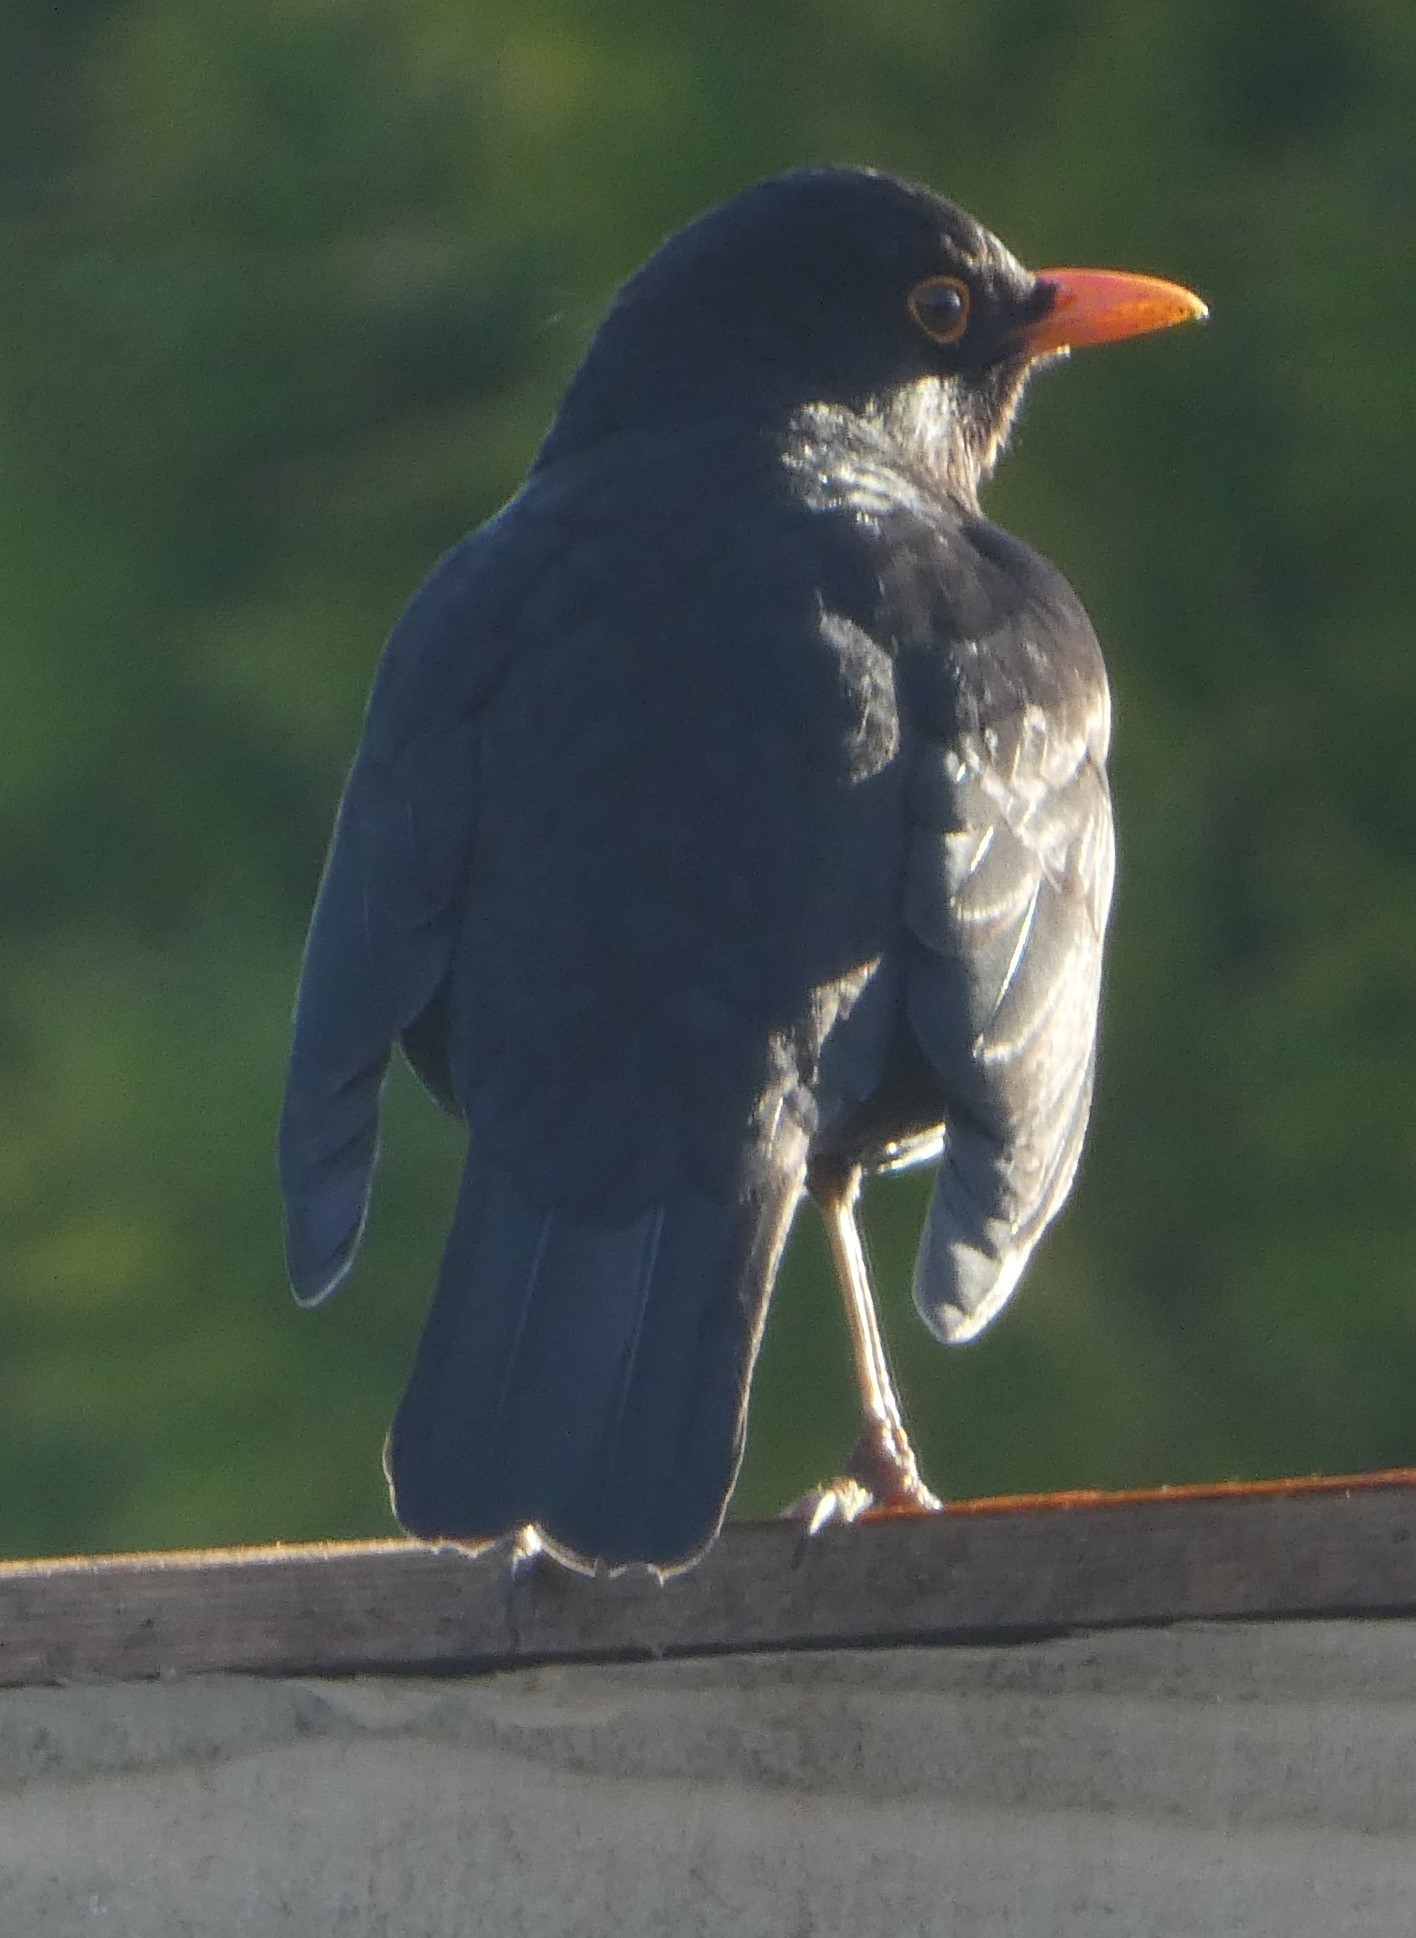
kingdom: Animalia
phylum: Chordata
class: Aves
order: Passeriformes
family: Turdidae
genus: Turdus
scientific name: Turdus merula
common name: Common blackbird
